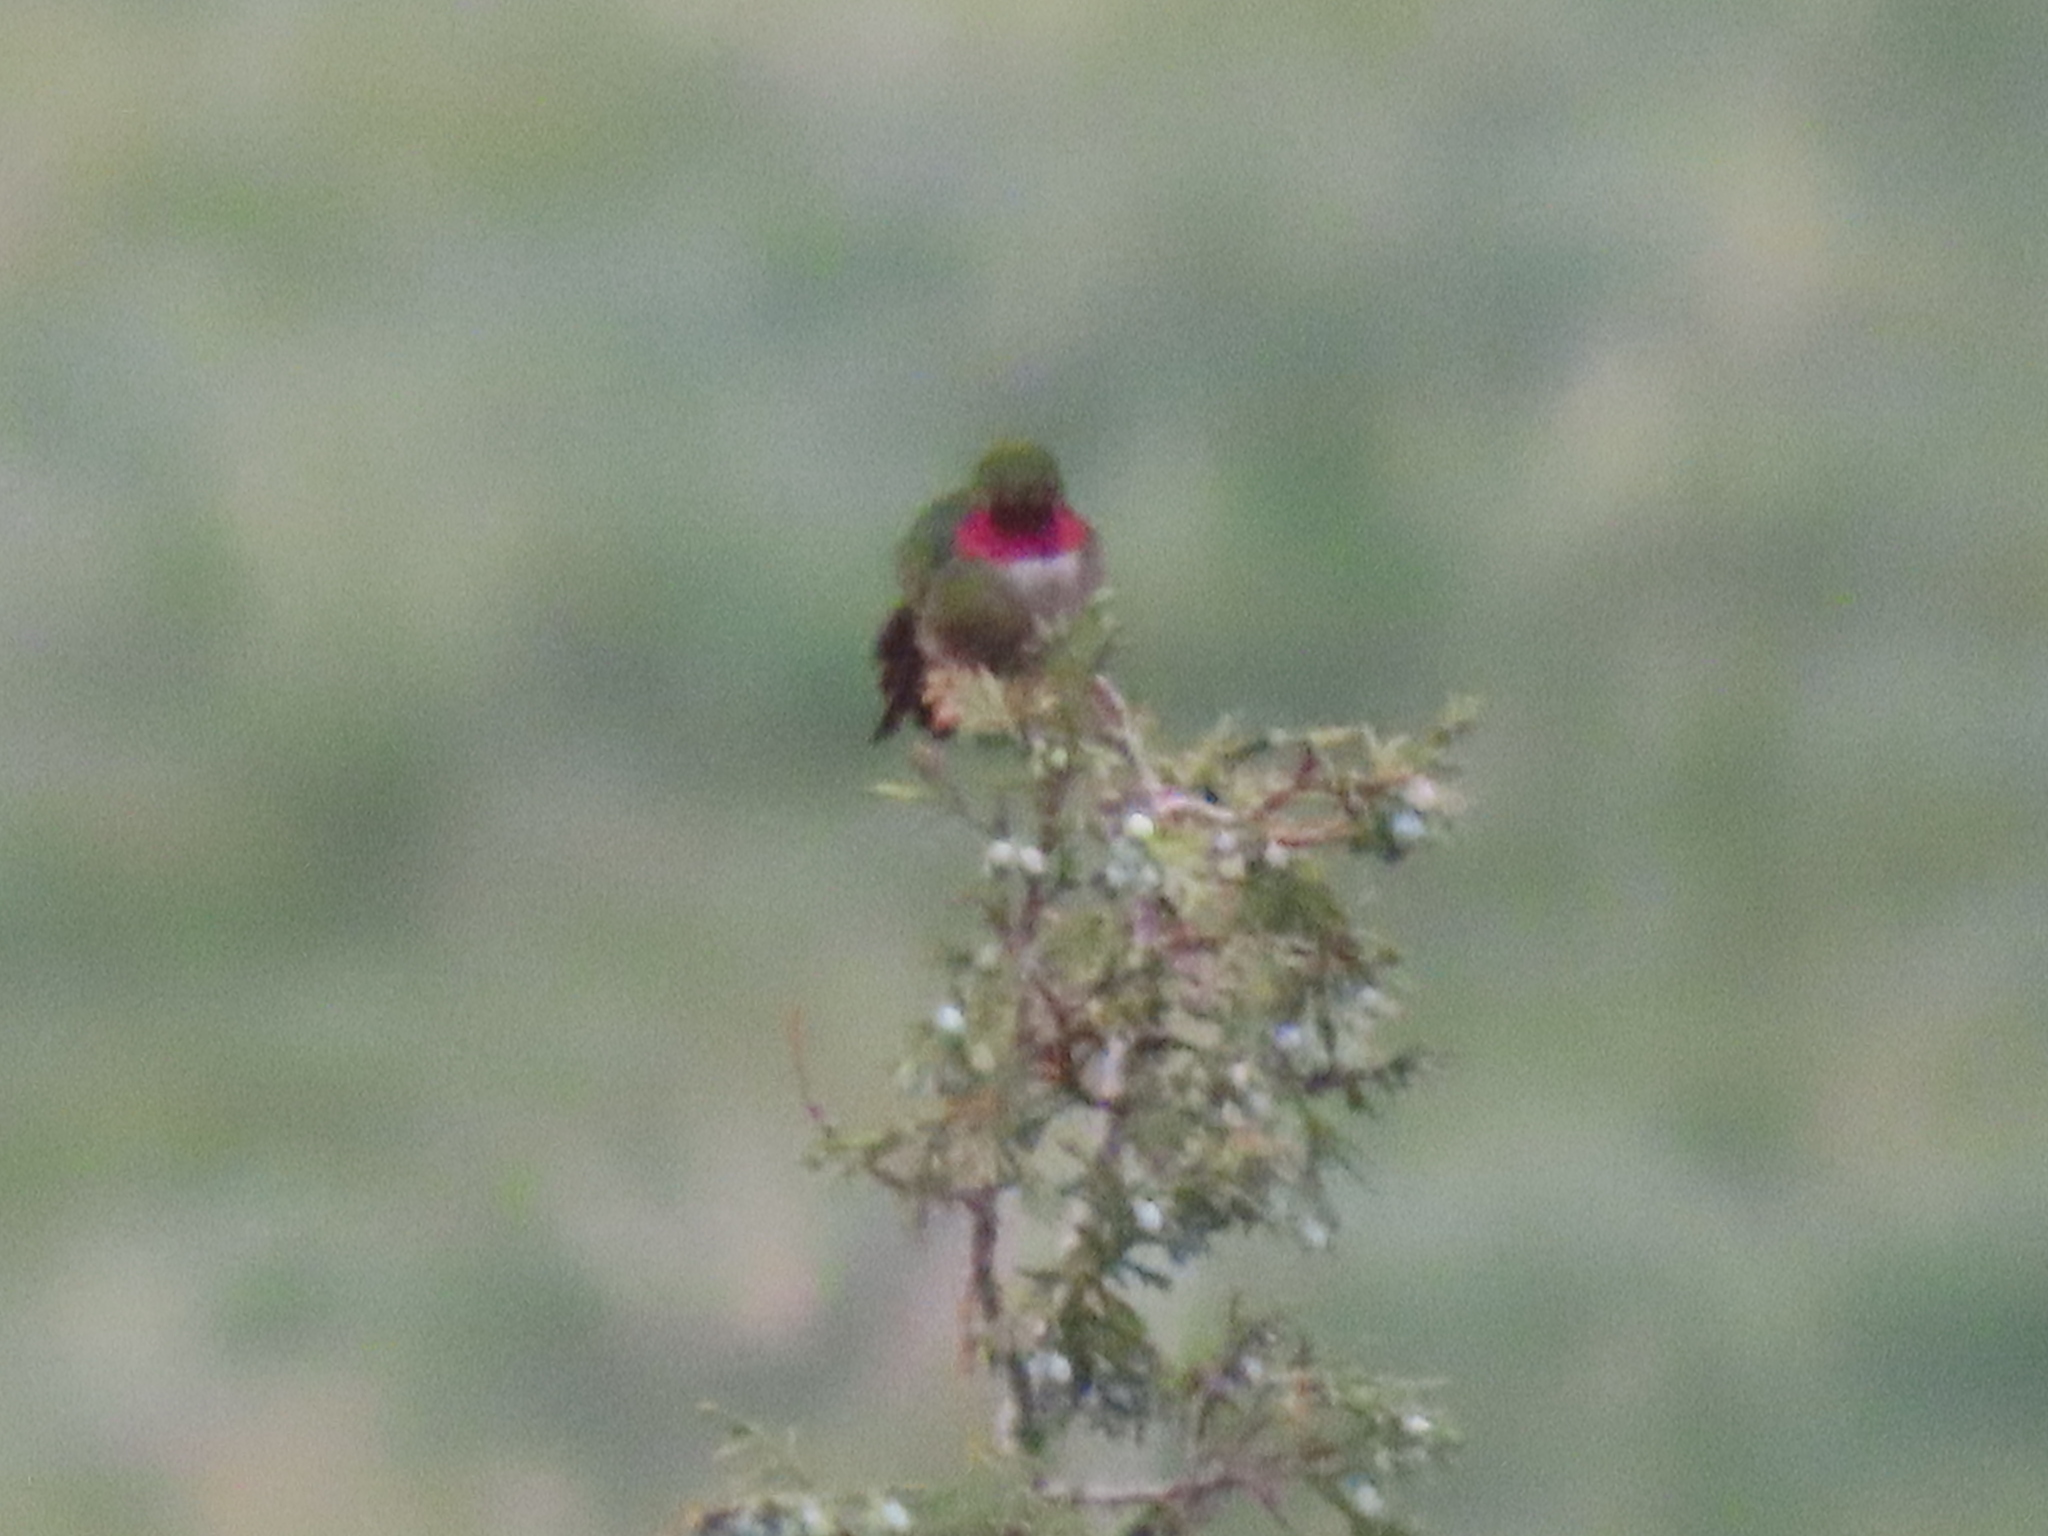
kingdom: Animalia
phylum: Chordata
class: Aves
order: Apodiformes
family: Trochilidae
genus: Selasphorus
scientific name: Selasphorus platycercus
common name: Broad-tailed hummingbird
